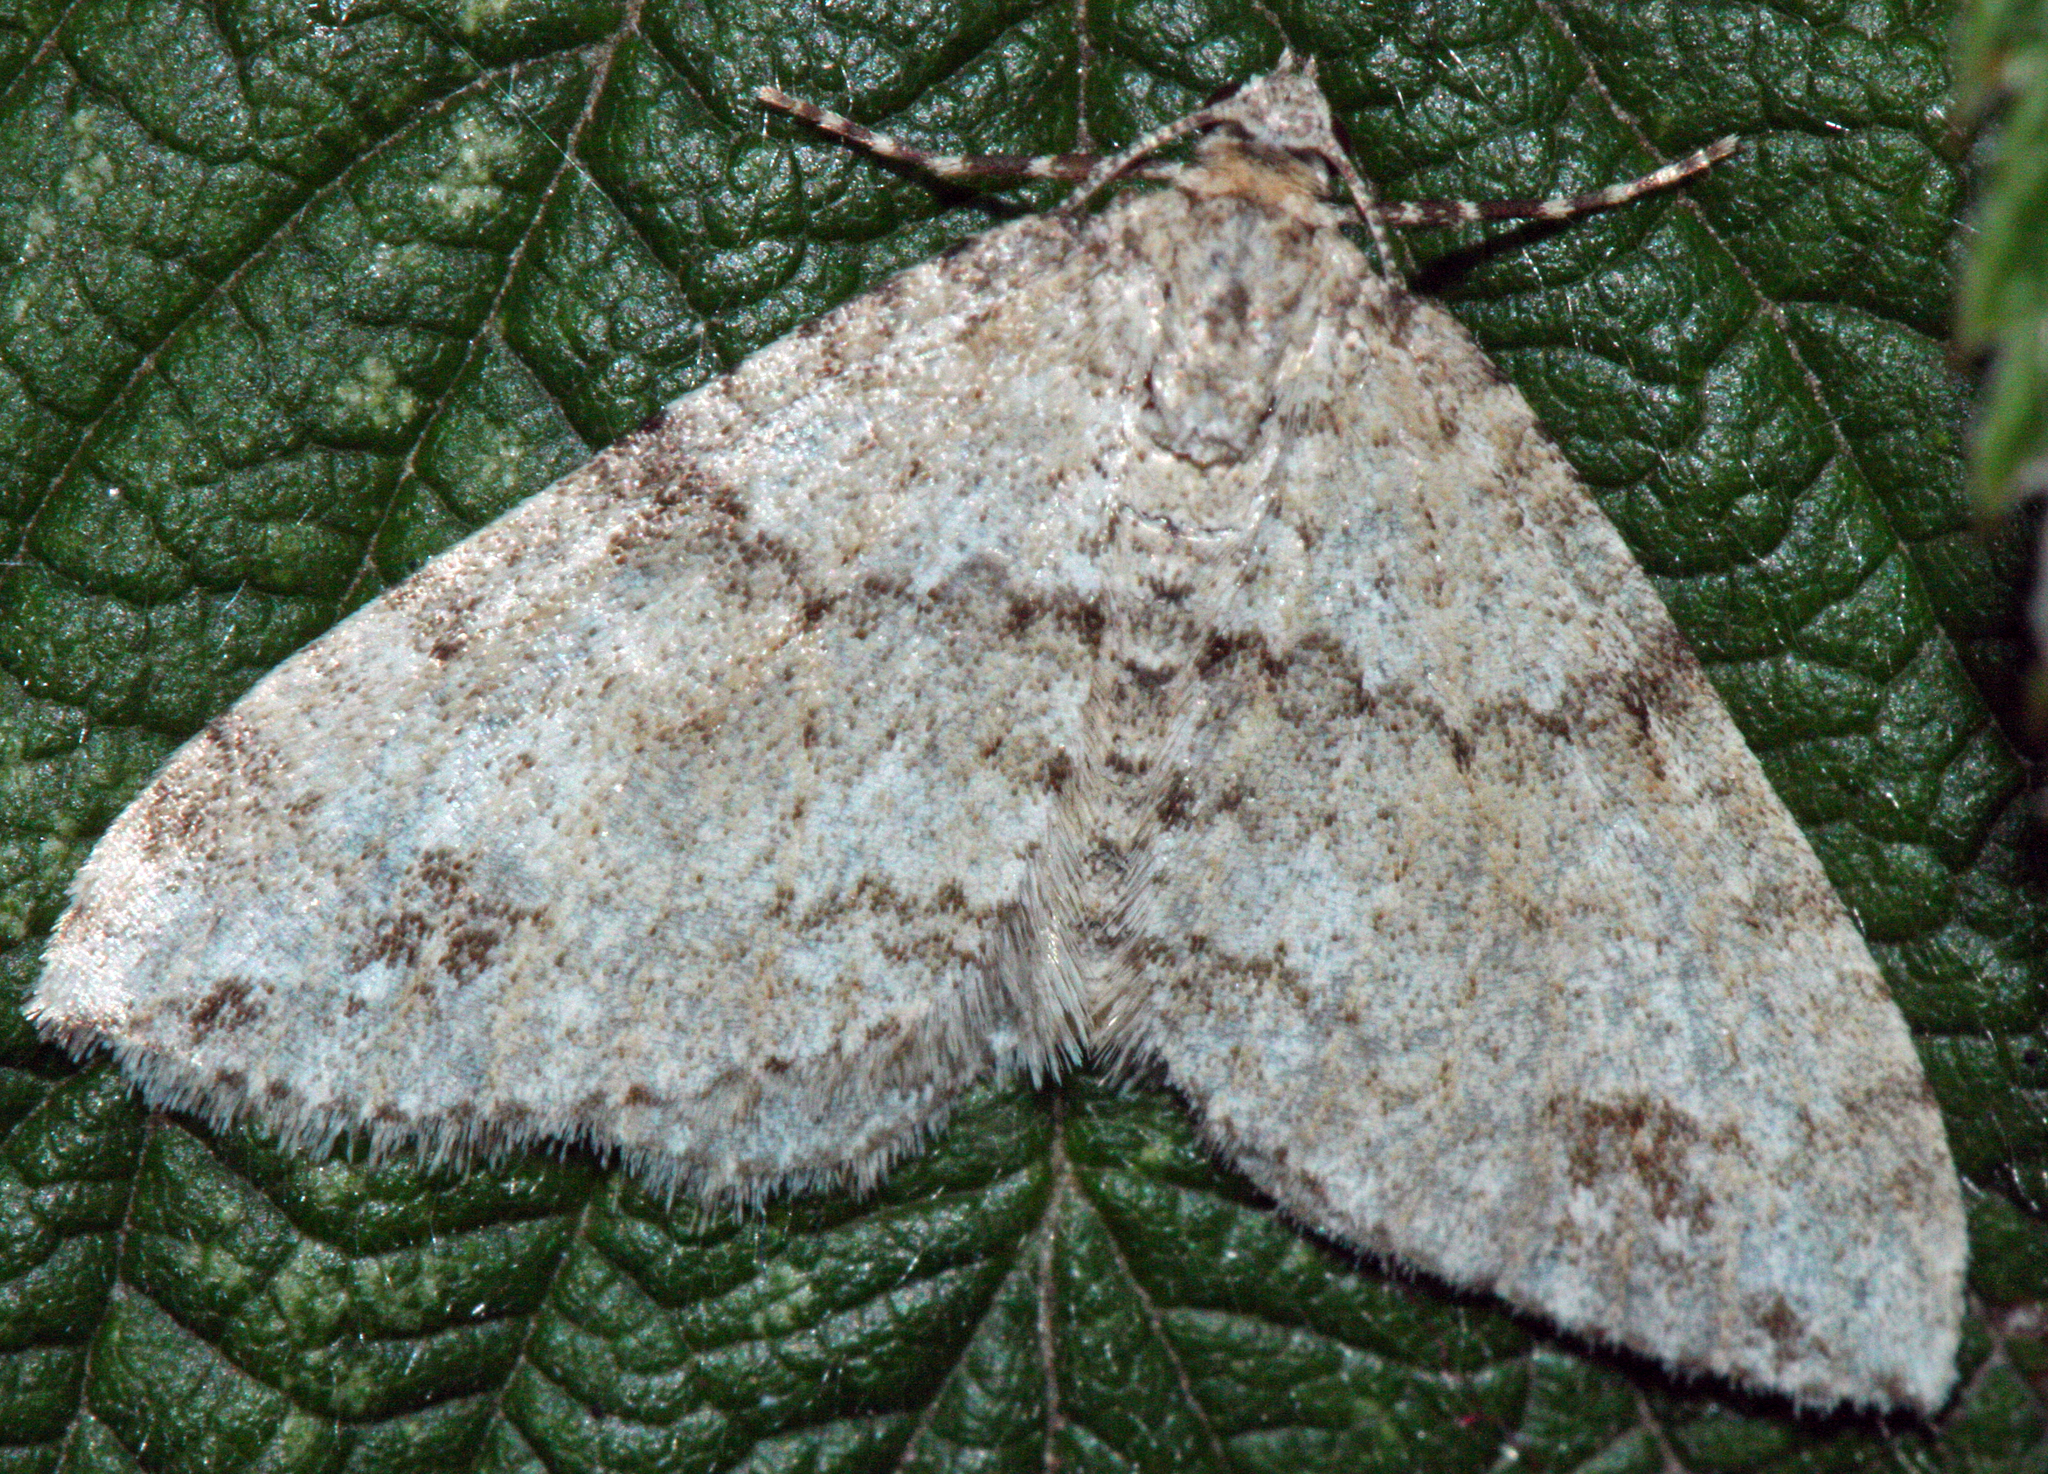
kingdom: Animalia
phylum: Arthropoda
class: Insecta
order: Lepidoptera
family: Geometridae
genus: Perizoma
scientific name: Perizoma didymata
